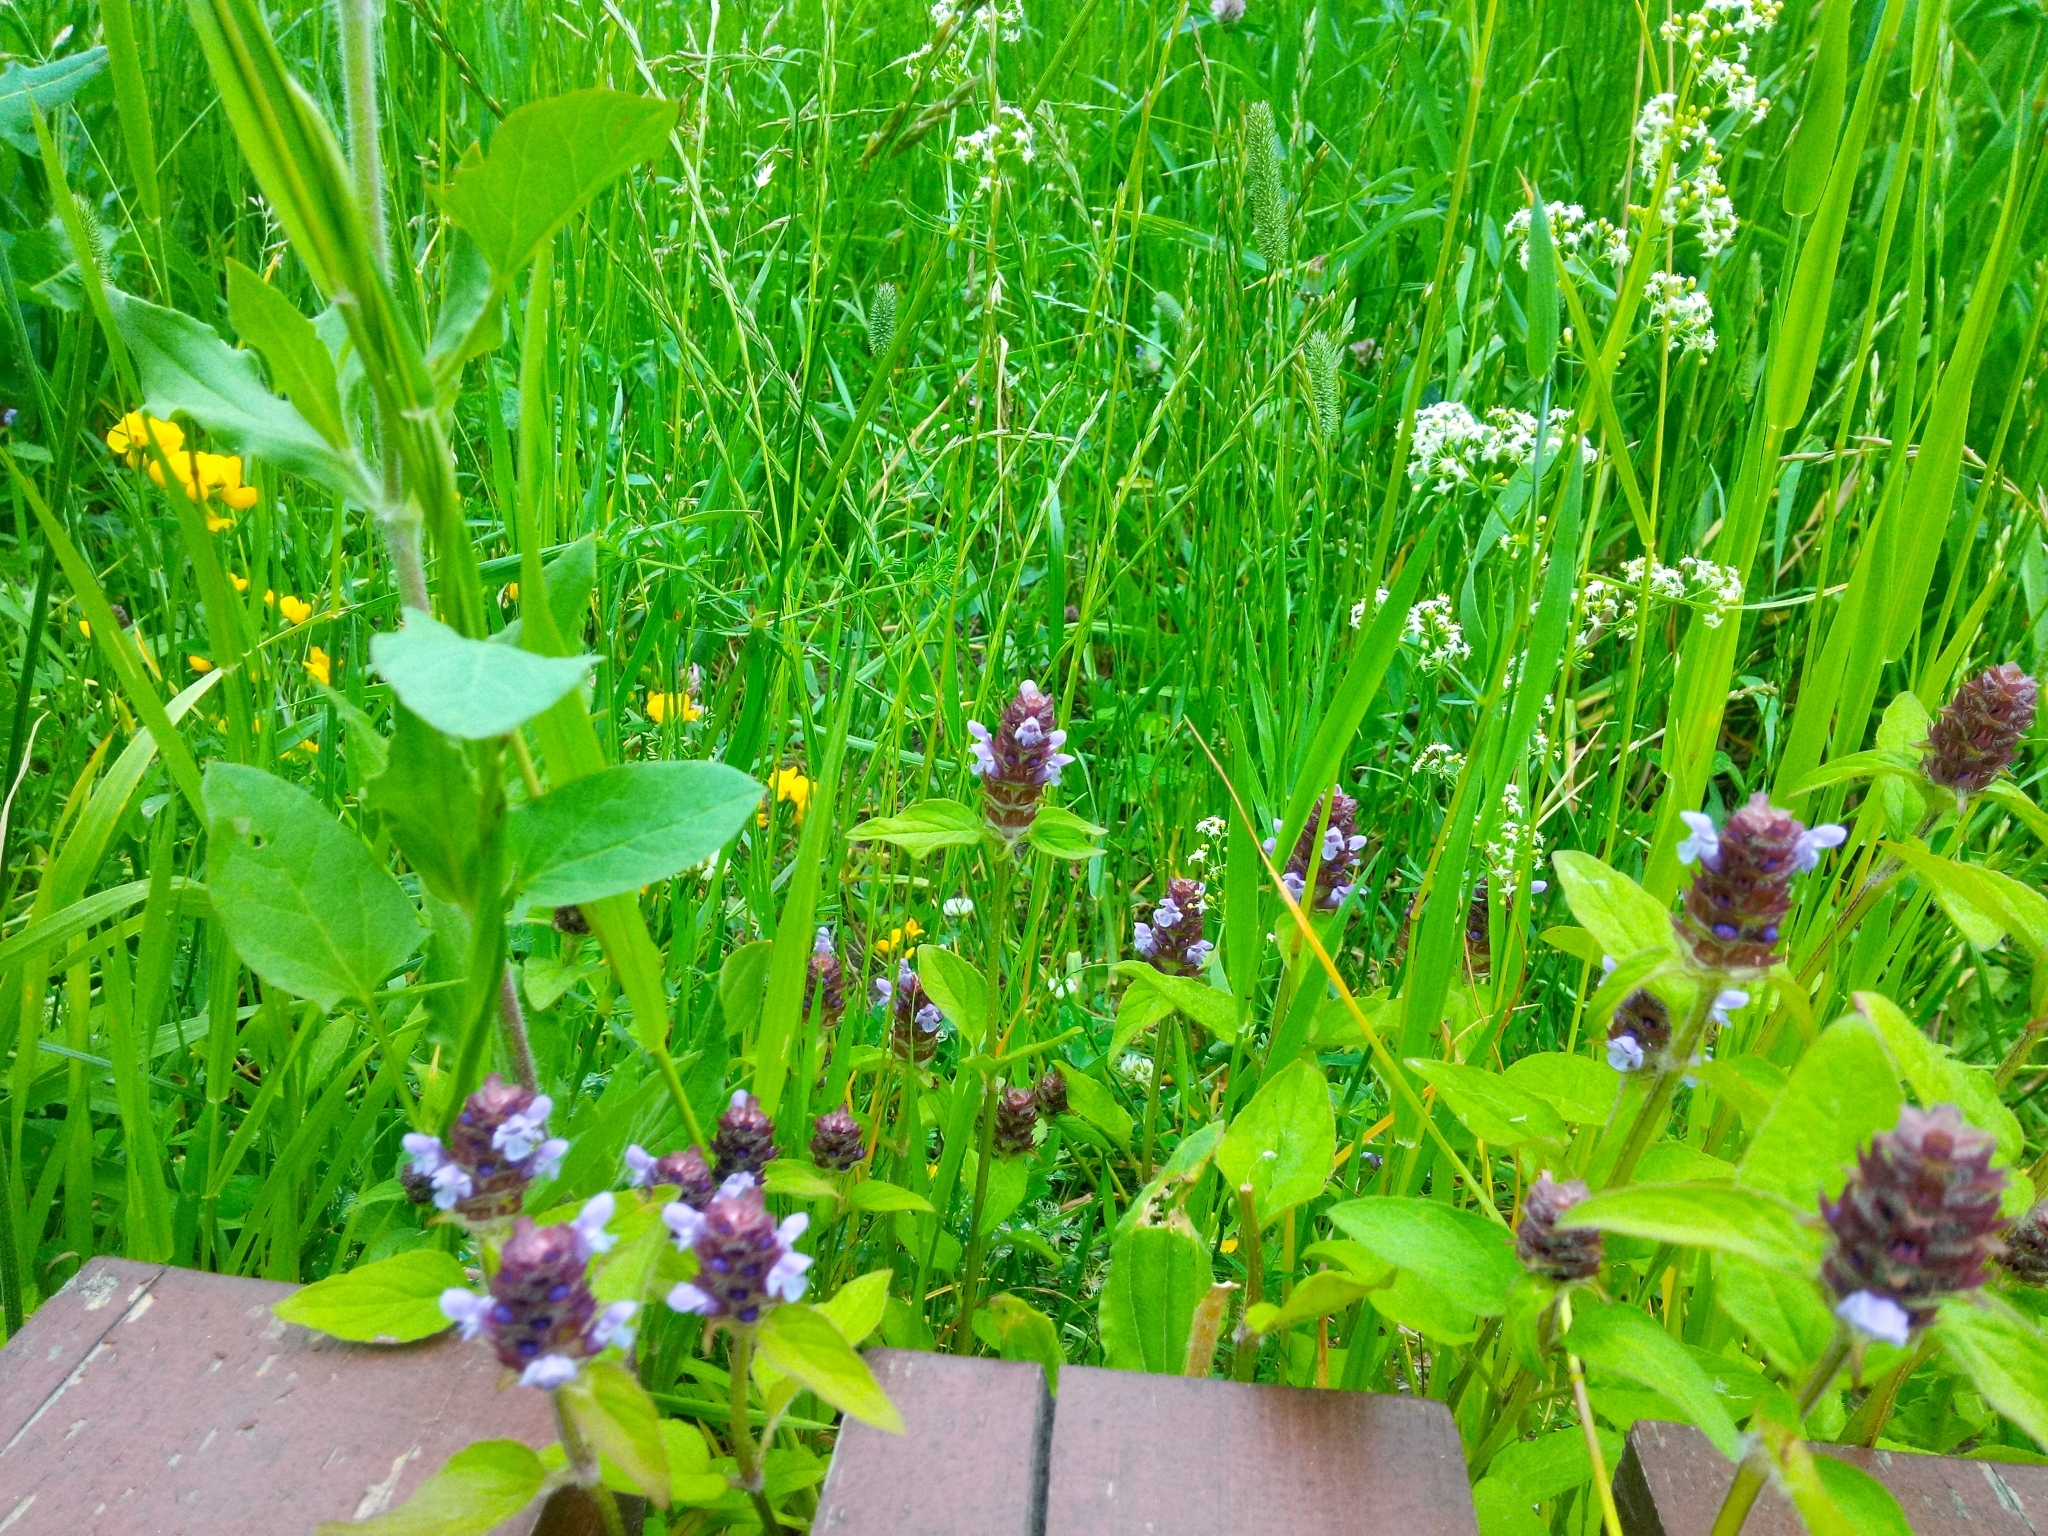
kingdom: Plantae
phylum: Tracheophyta
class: Magnoliopsida
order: Lamiales
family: Lamiaceae
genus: Prunella
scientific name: Prunella vulgaris
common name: Heal-all
